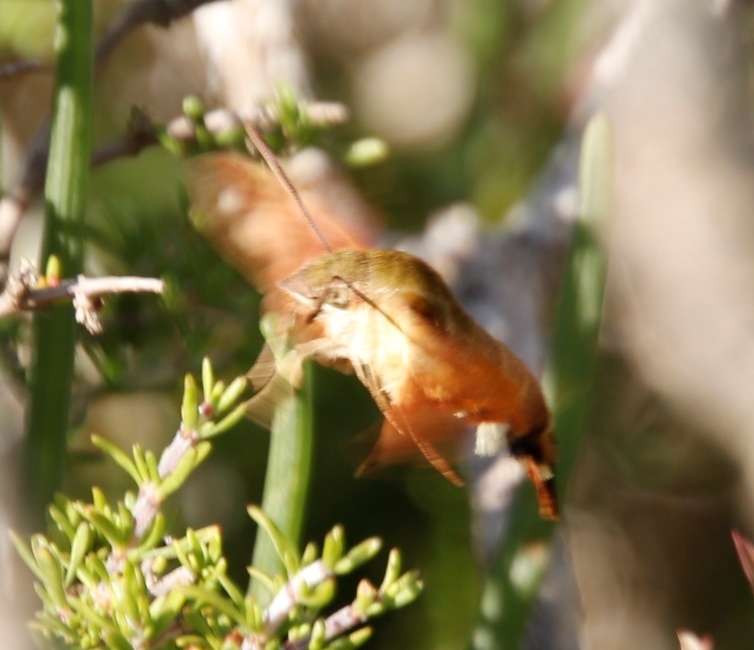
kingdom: Animalia
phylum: Arthropoda
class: Insecta
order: Lepidoptera
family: Sphingidae
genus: Macroglossum
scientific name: Macroglossum trochilus
